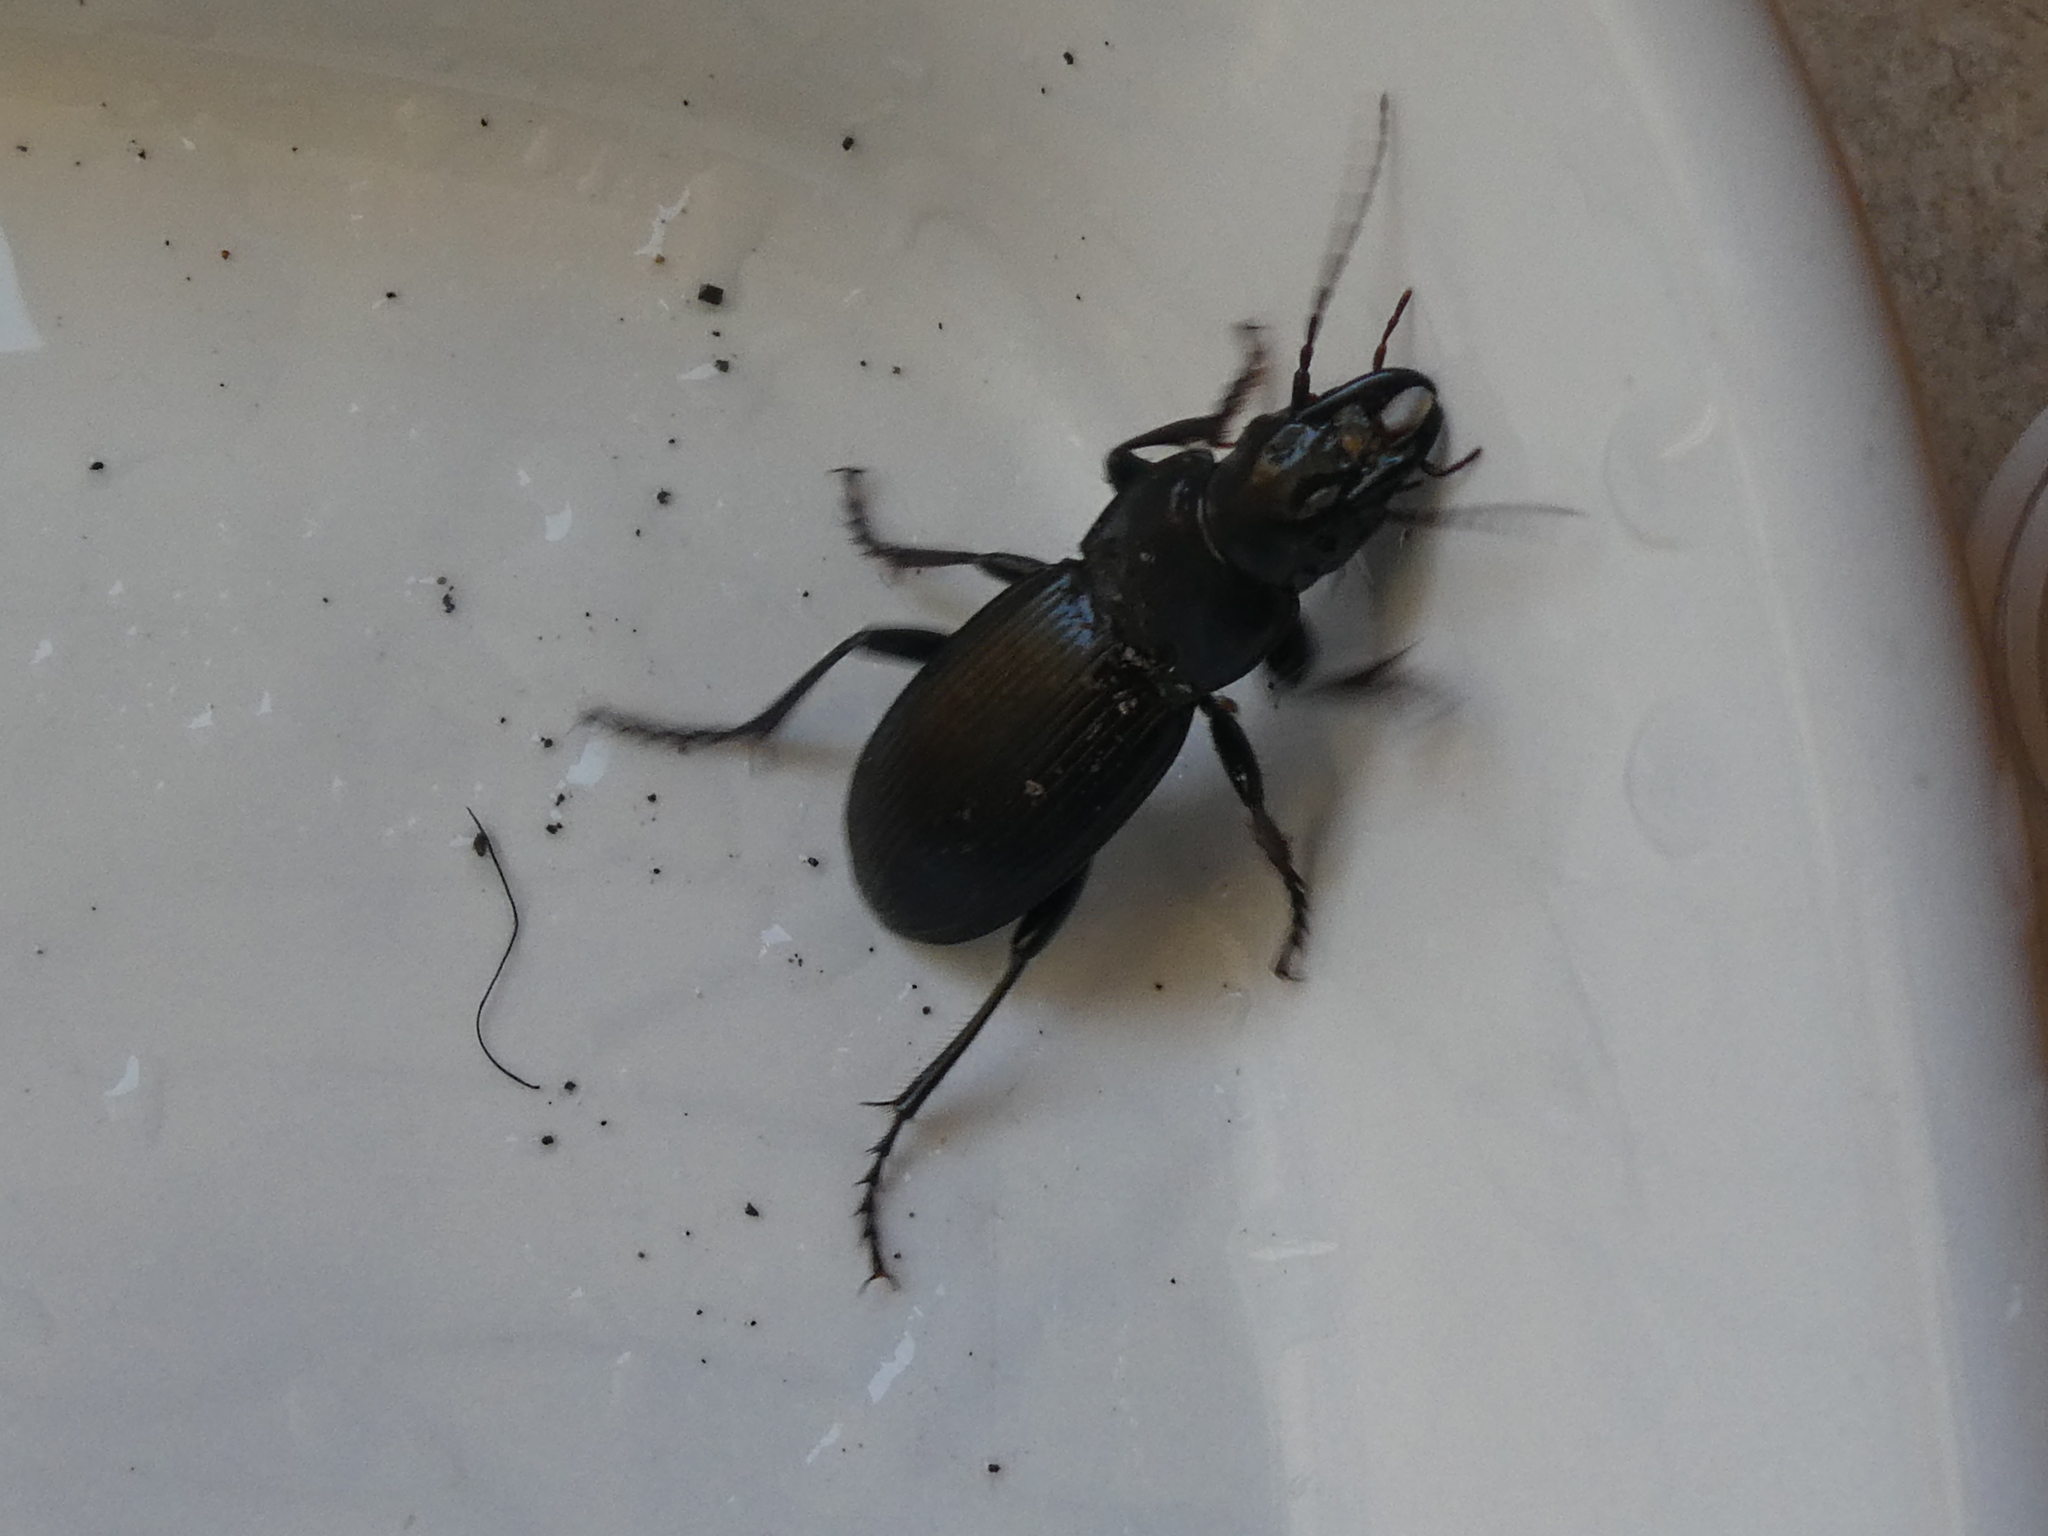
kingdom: Animalia
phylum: Arthropoda
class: Insecta
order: Coleoptera
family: Carabidae
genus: Plocamostethus
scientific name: Plocamostethus planiusculus
